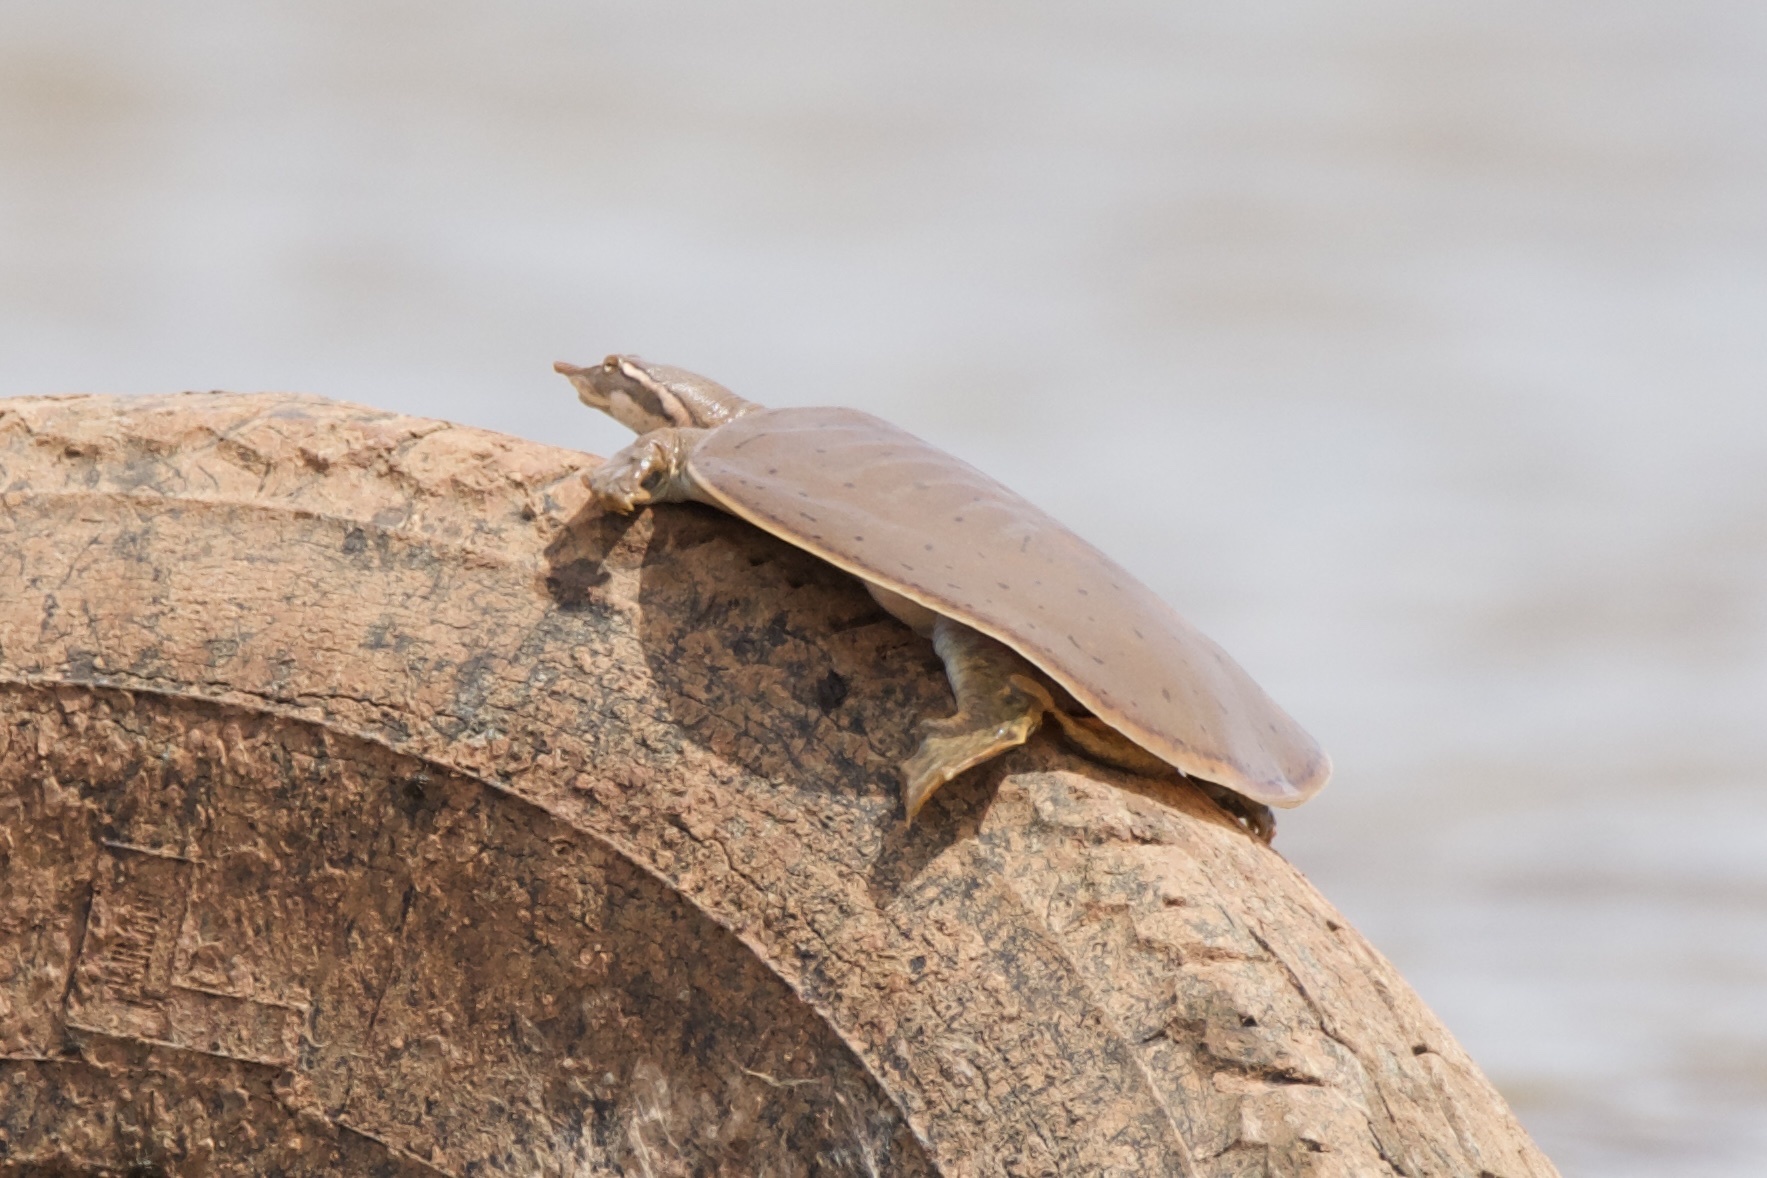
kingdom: Animalia
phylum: Chordata
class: Testudines
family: Trionychidae
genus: Apalone
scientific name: Apalone mutica
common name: Smooth softshell turtle
